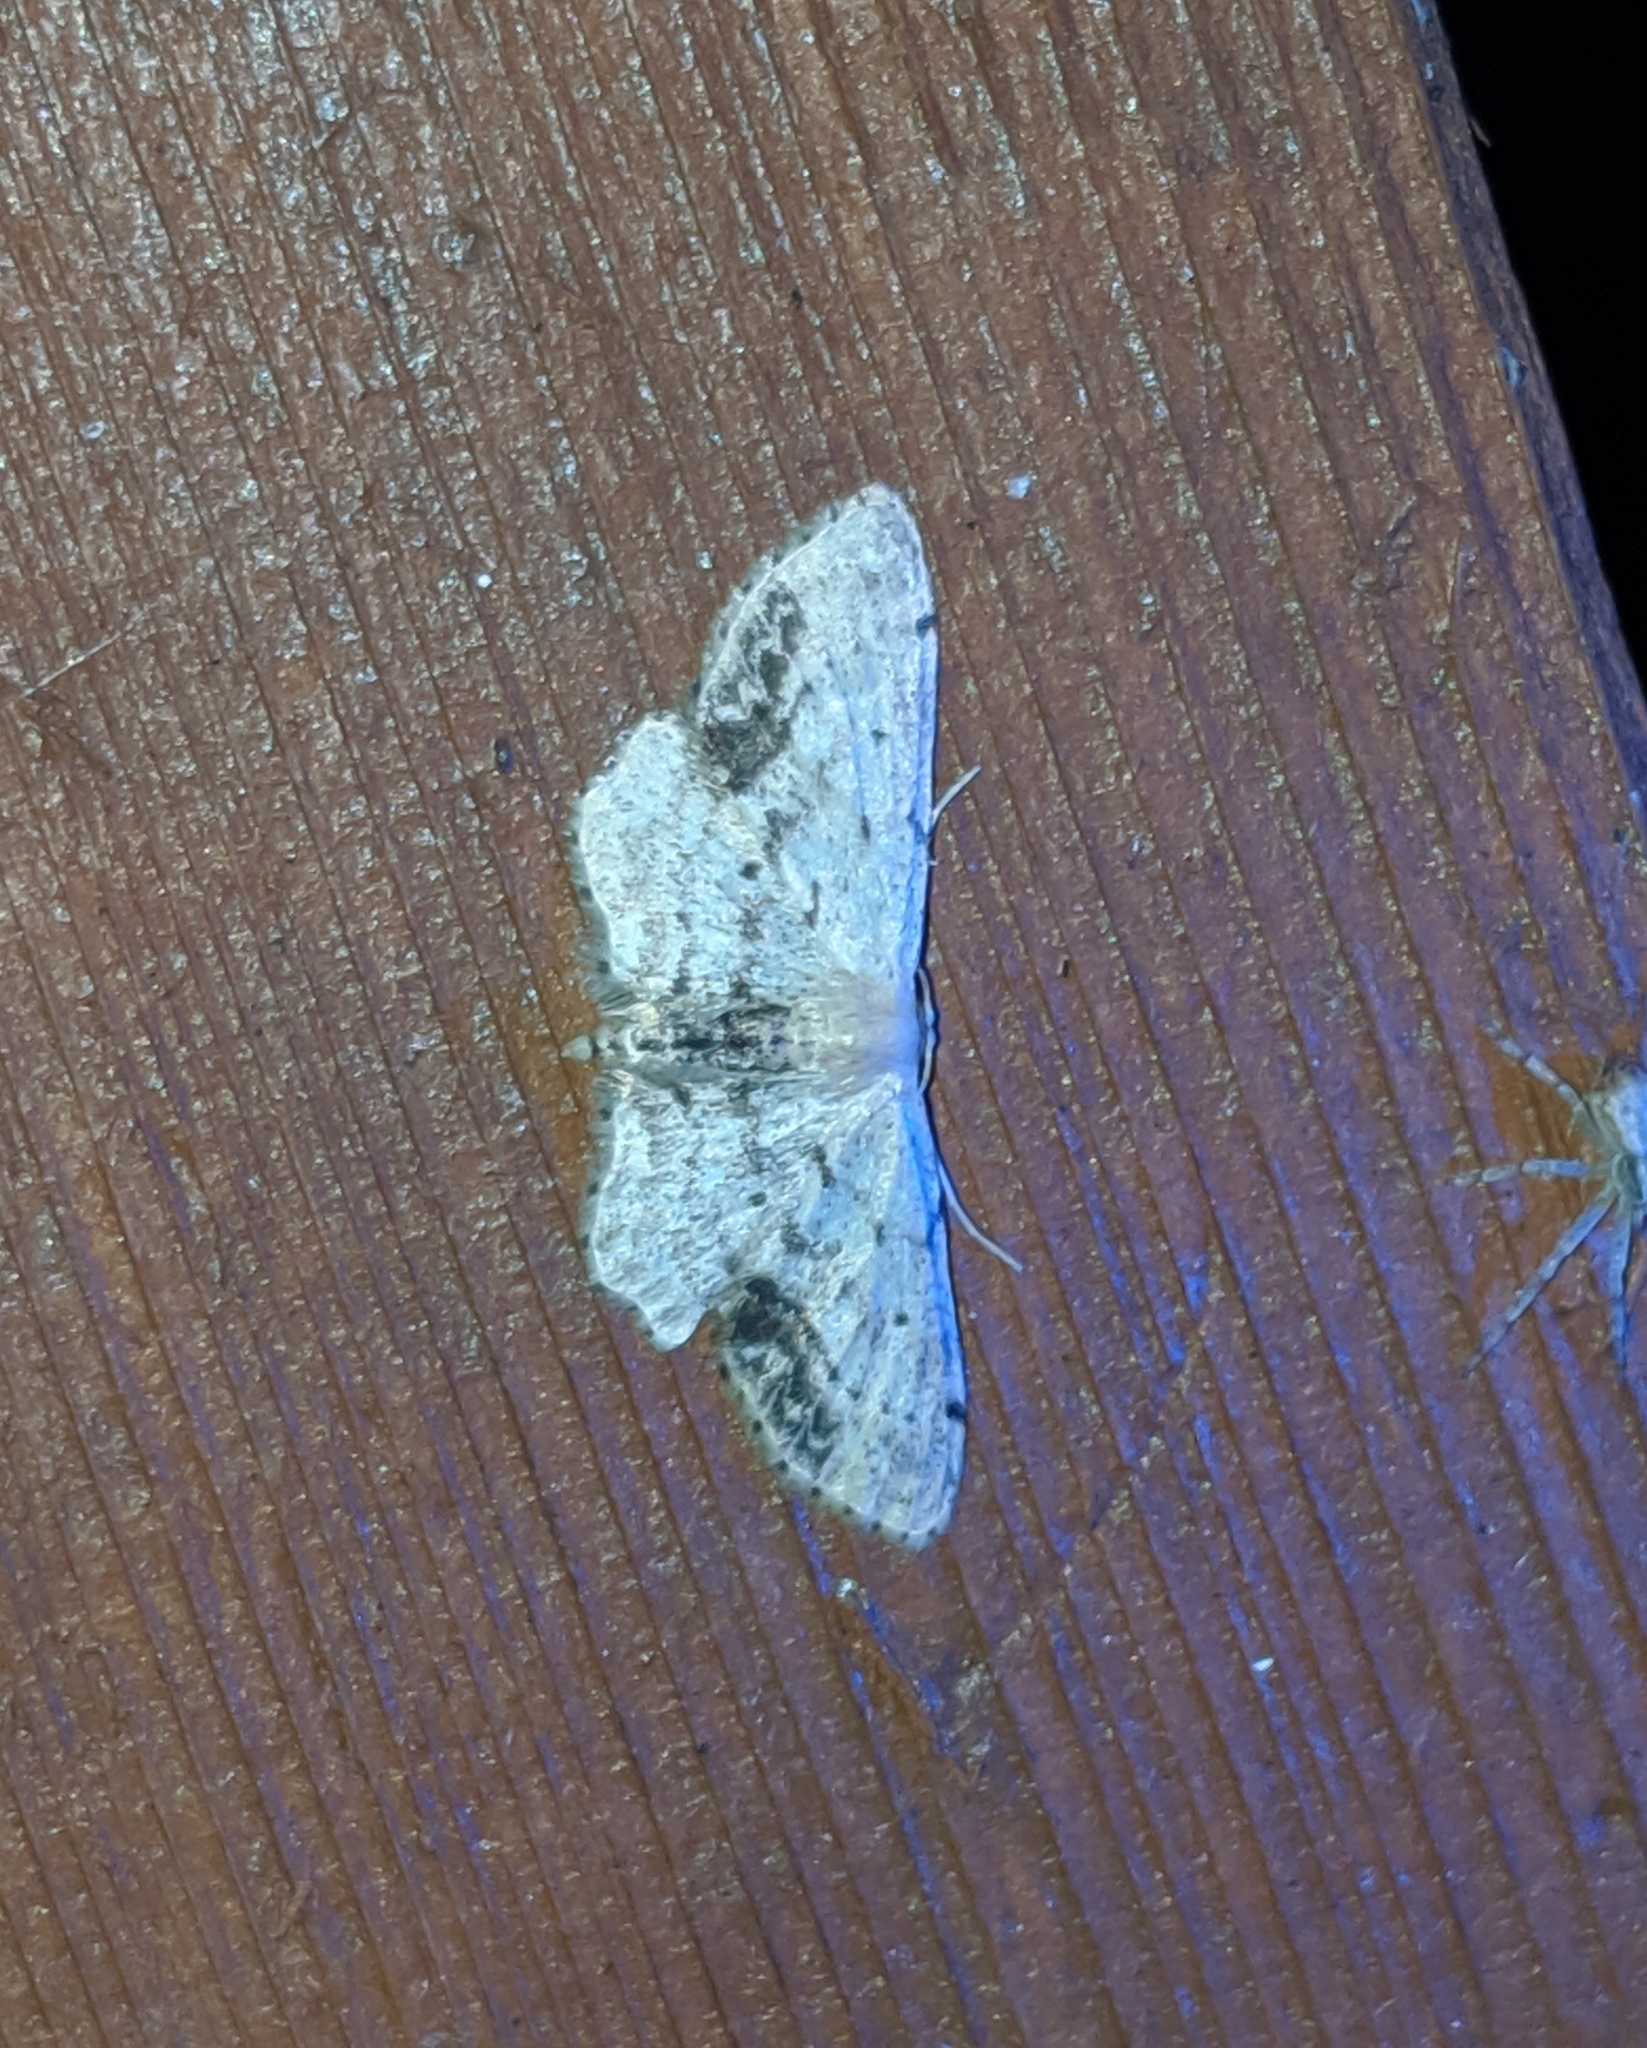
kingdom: Animalia
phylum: Arthropoda
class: Insecta
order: Lepidoptera
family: Geometridae
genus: Idaea
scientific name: Idaea dimidiata
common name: Single-dotted wave
